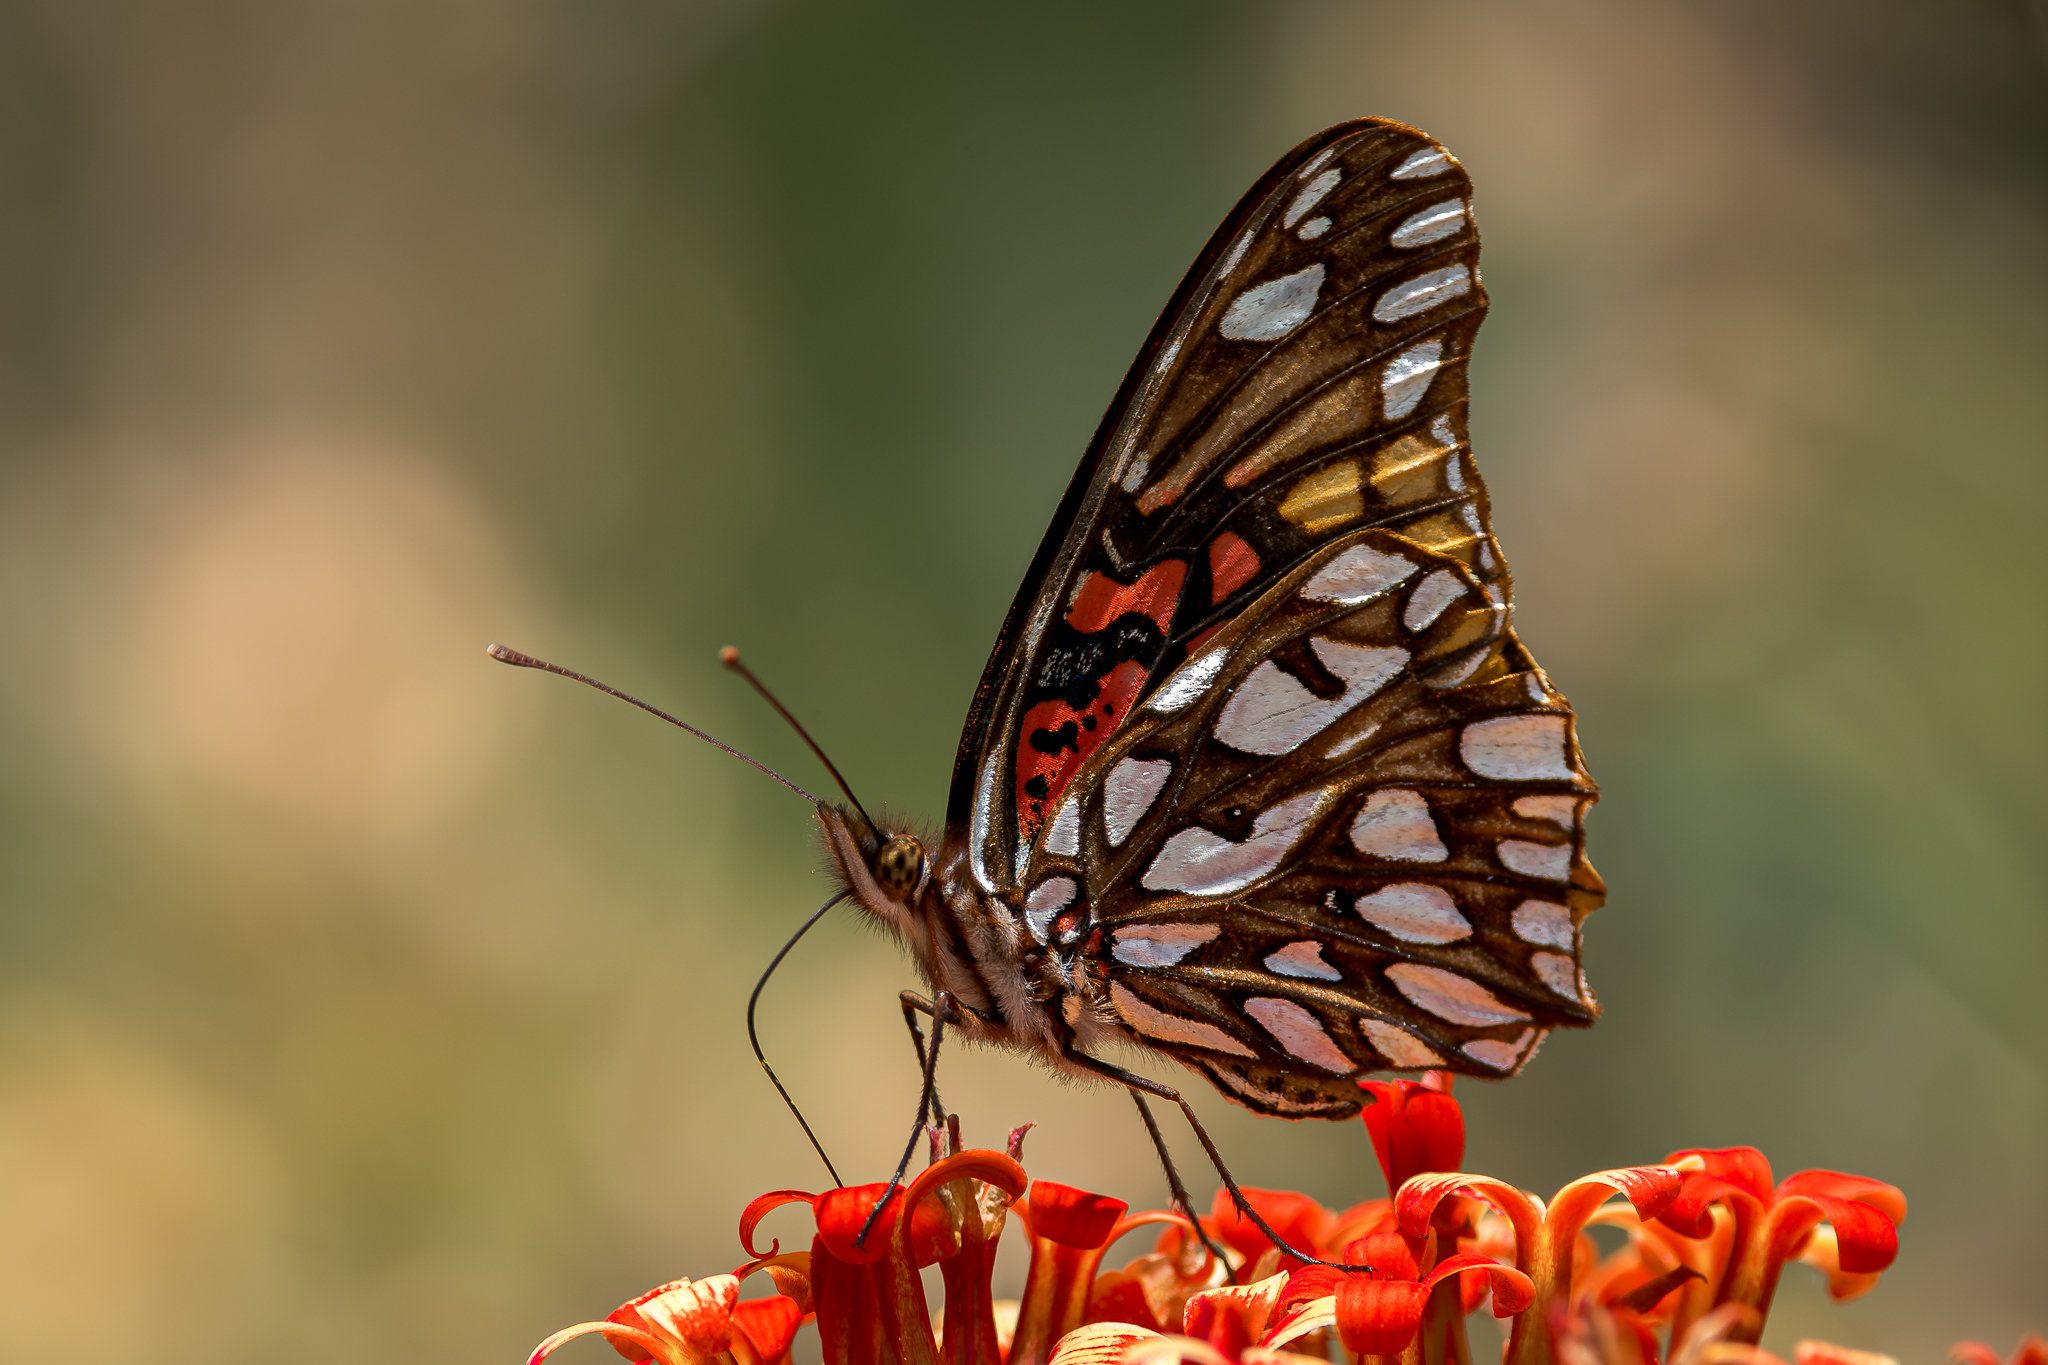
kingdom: Animalia
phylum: Arthropoda
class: Insecta
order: Lepidoptera
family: Nymphalidae
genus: Dione
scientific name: Dione moneta
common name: Mexican silverspot
